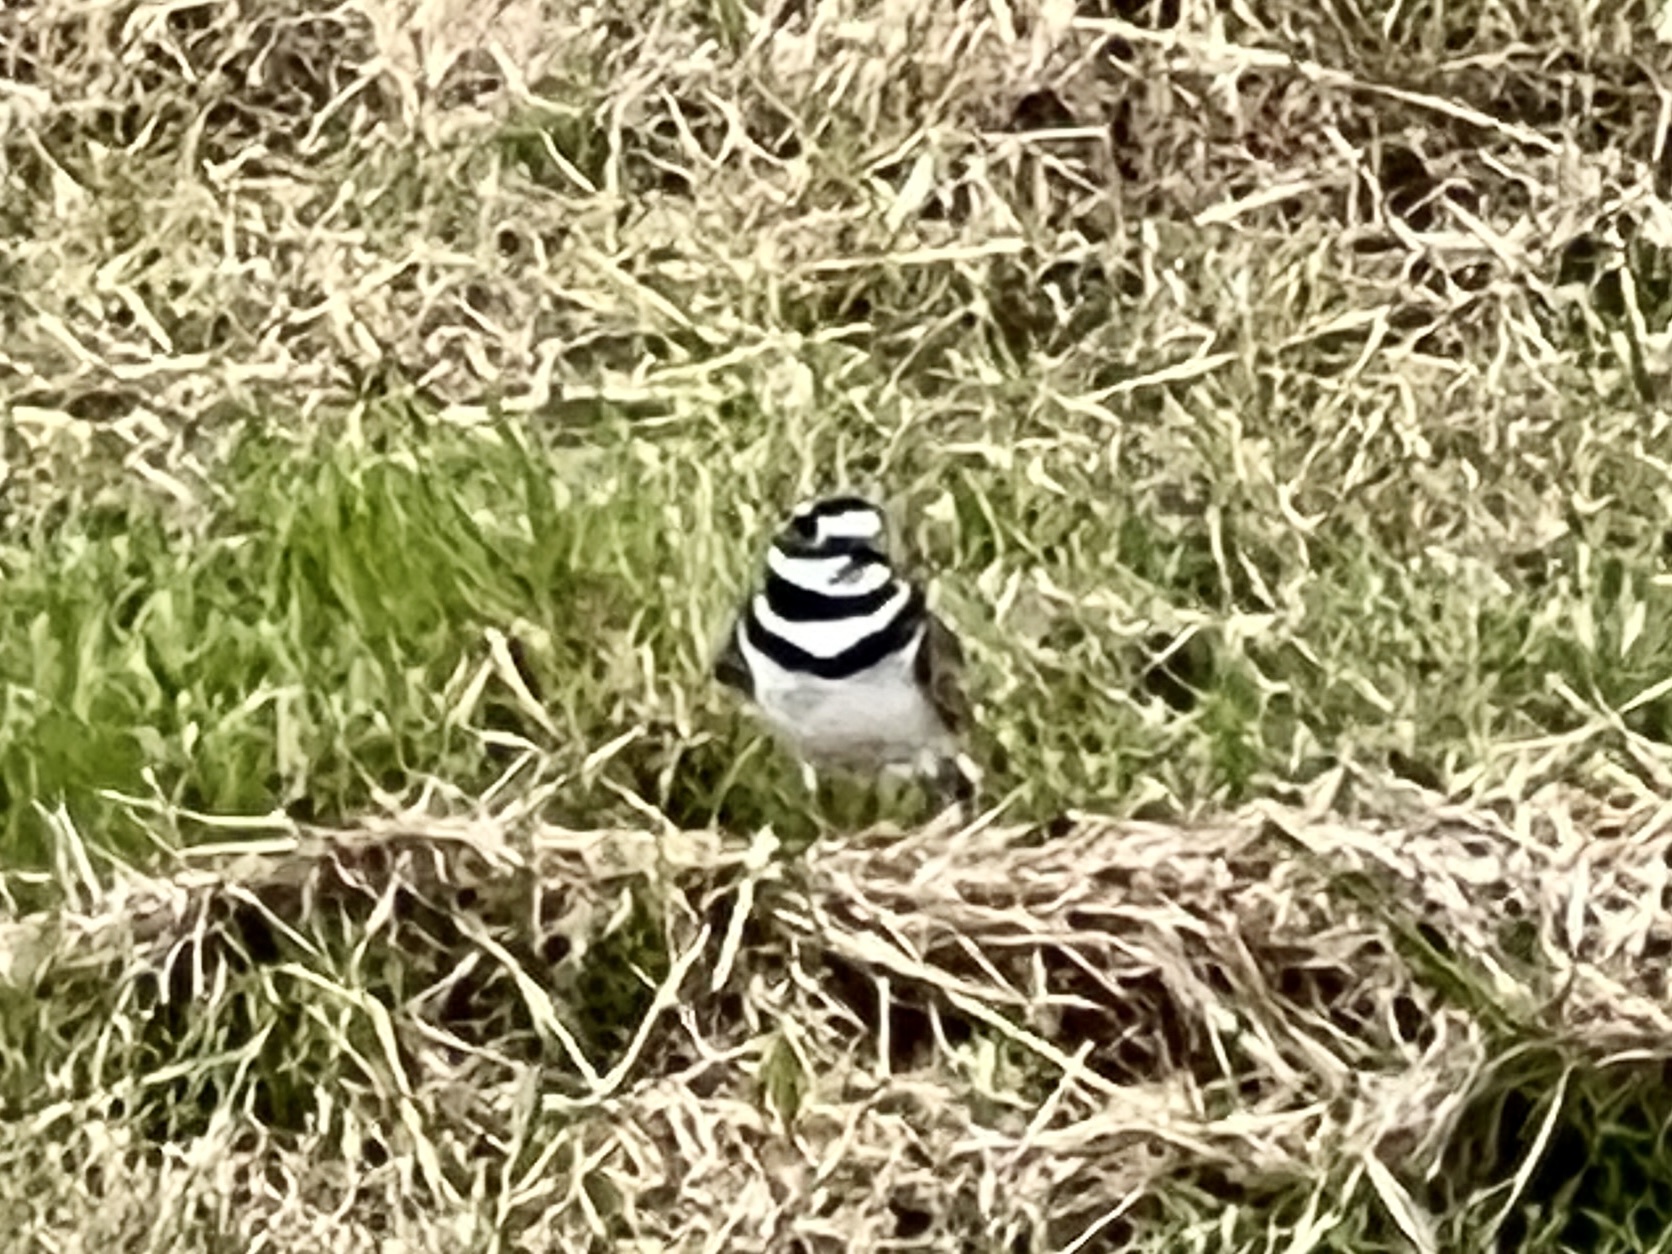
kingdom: Animalia
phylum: Chordata
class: Aves
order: Charadriiformes
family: Charadriidae
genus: Charadrius
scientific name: Charadrius vociferus
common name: Killdeer
